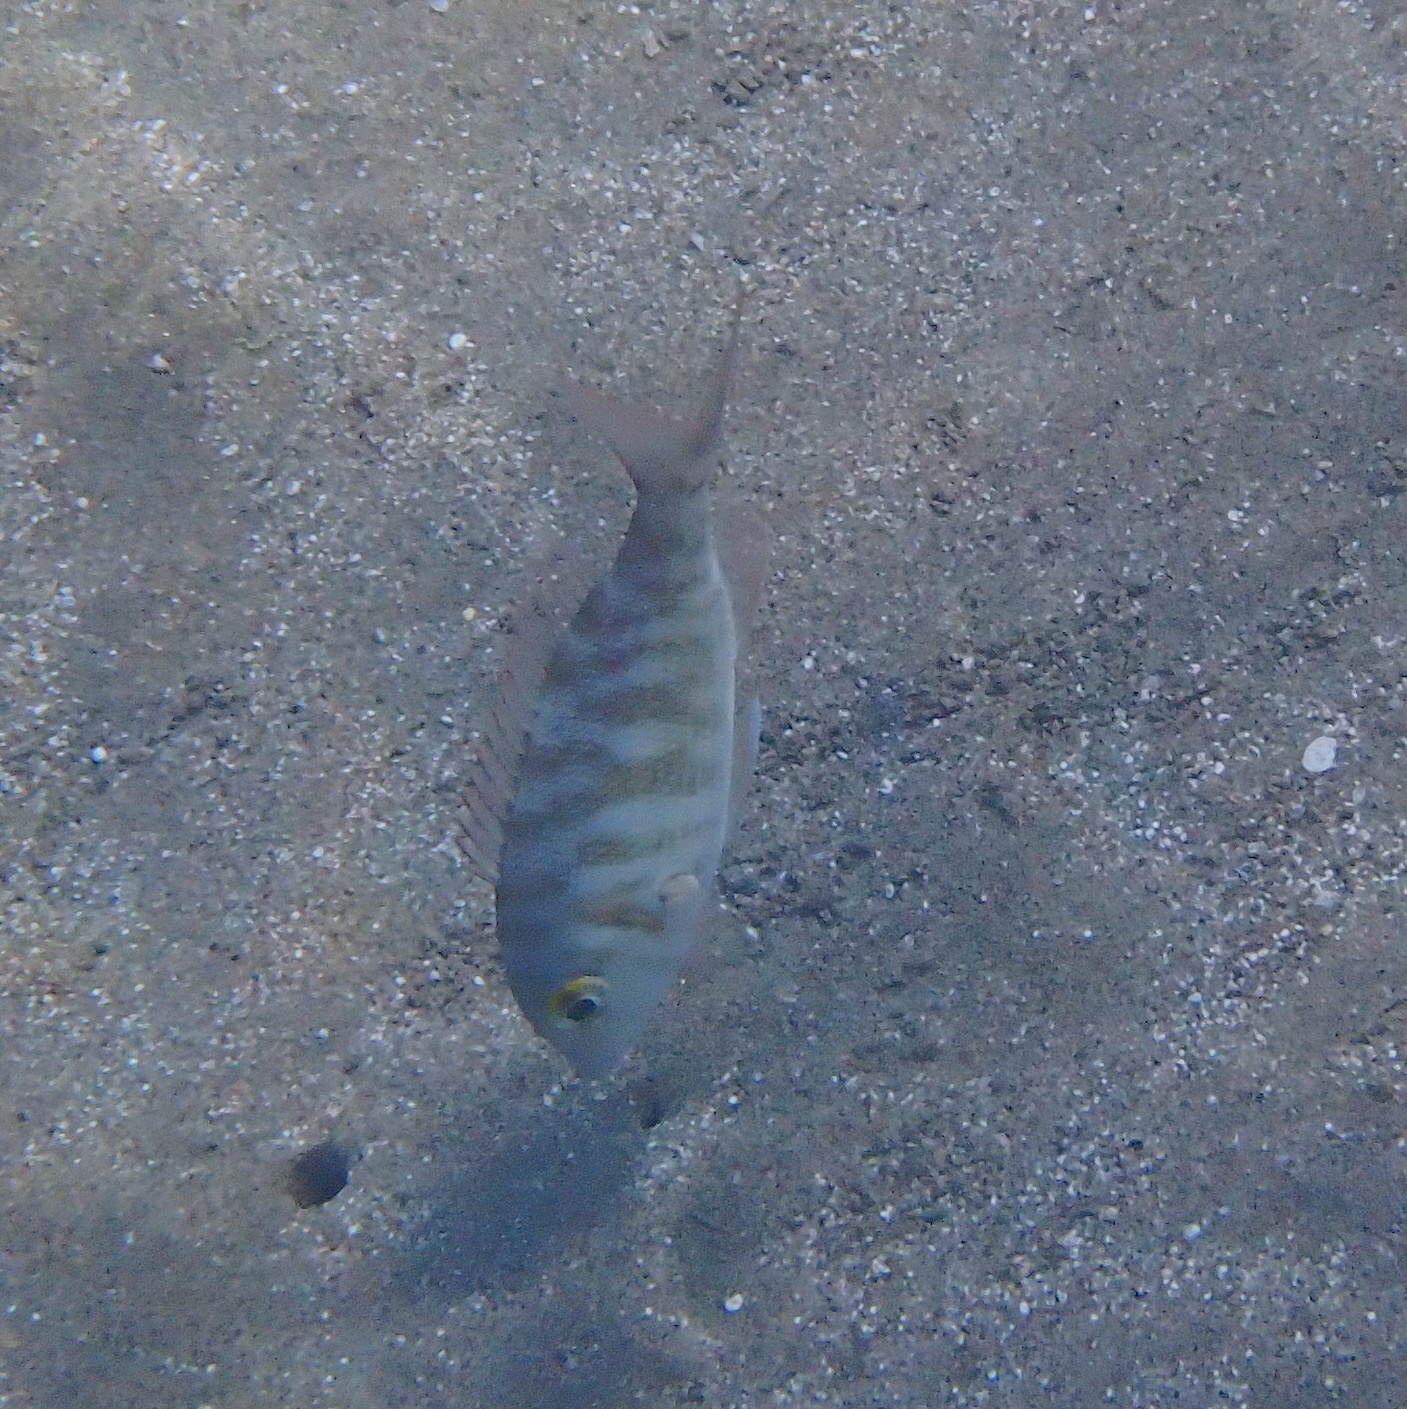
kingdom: Animalia
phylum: Chordata
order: Perciformes
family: Lethrinidae
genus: Lethrinus
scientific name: Lethrinus mahsena
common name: Sky emperor
